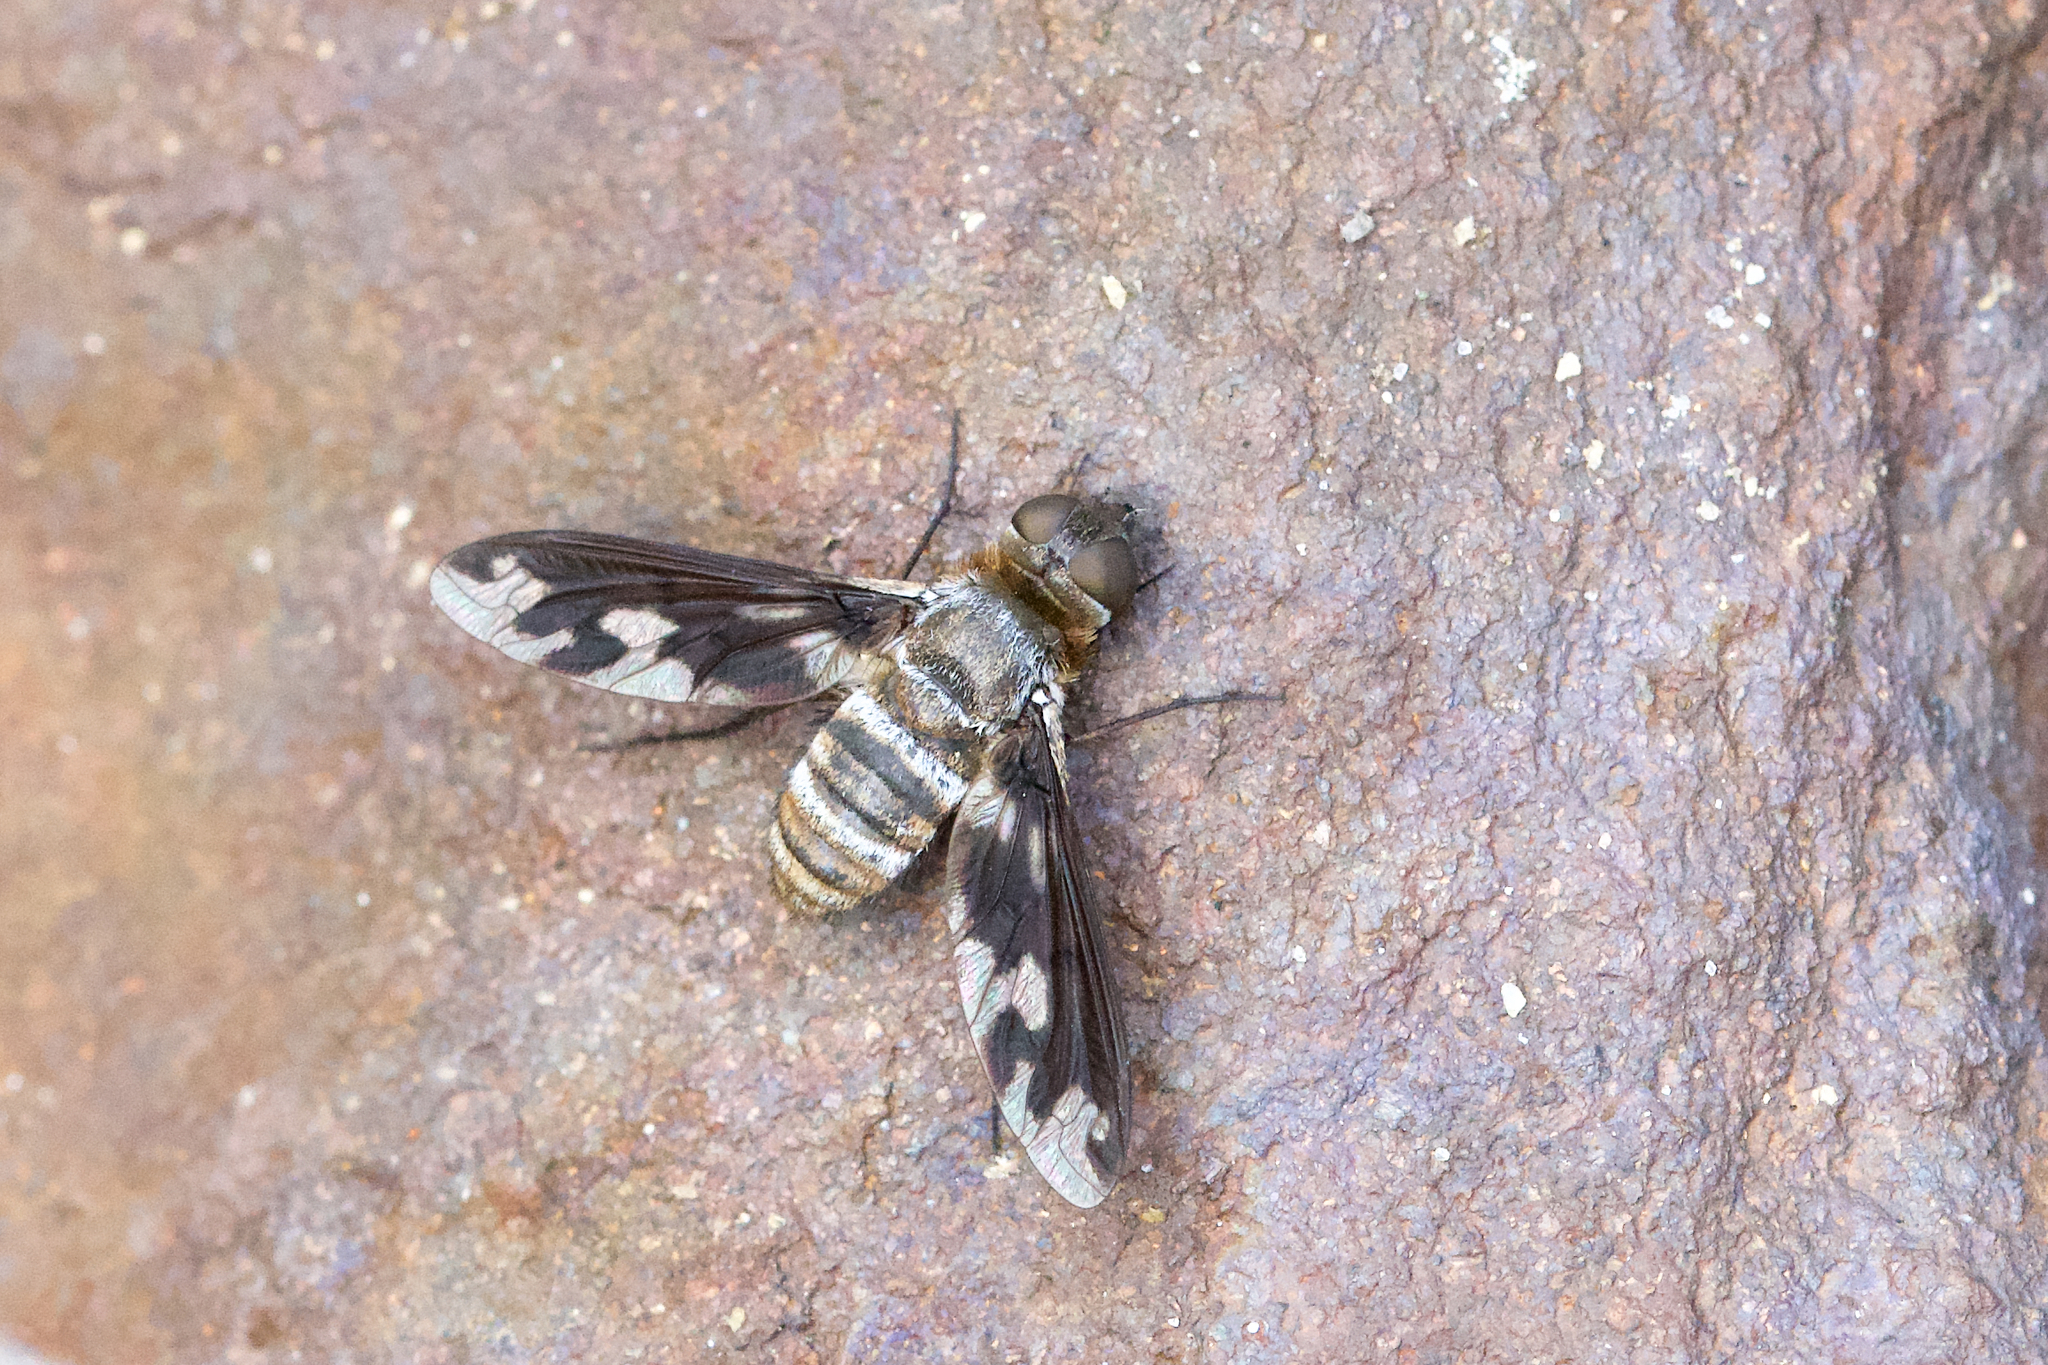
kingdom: Animalia
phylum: Arthropoda
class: Insecta
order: Diptera
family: Bombyliidae
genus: Exoprosopa
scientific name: Exoprosopa fascipennis
